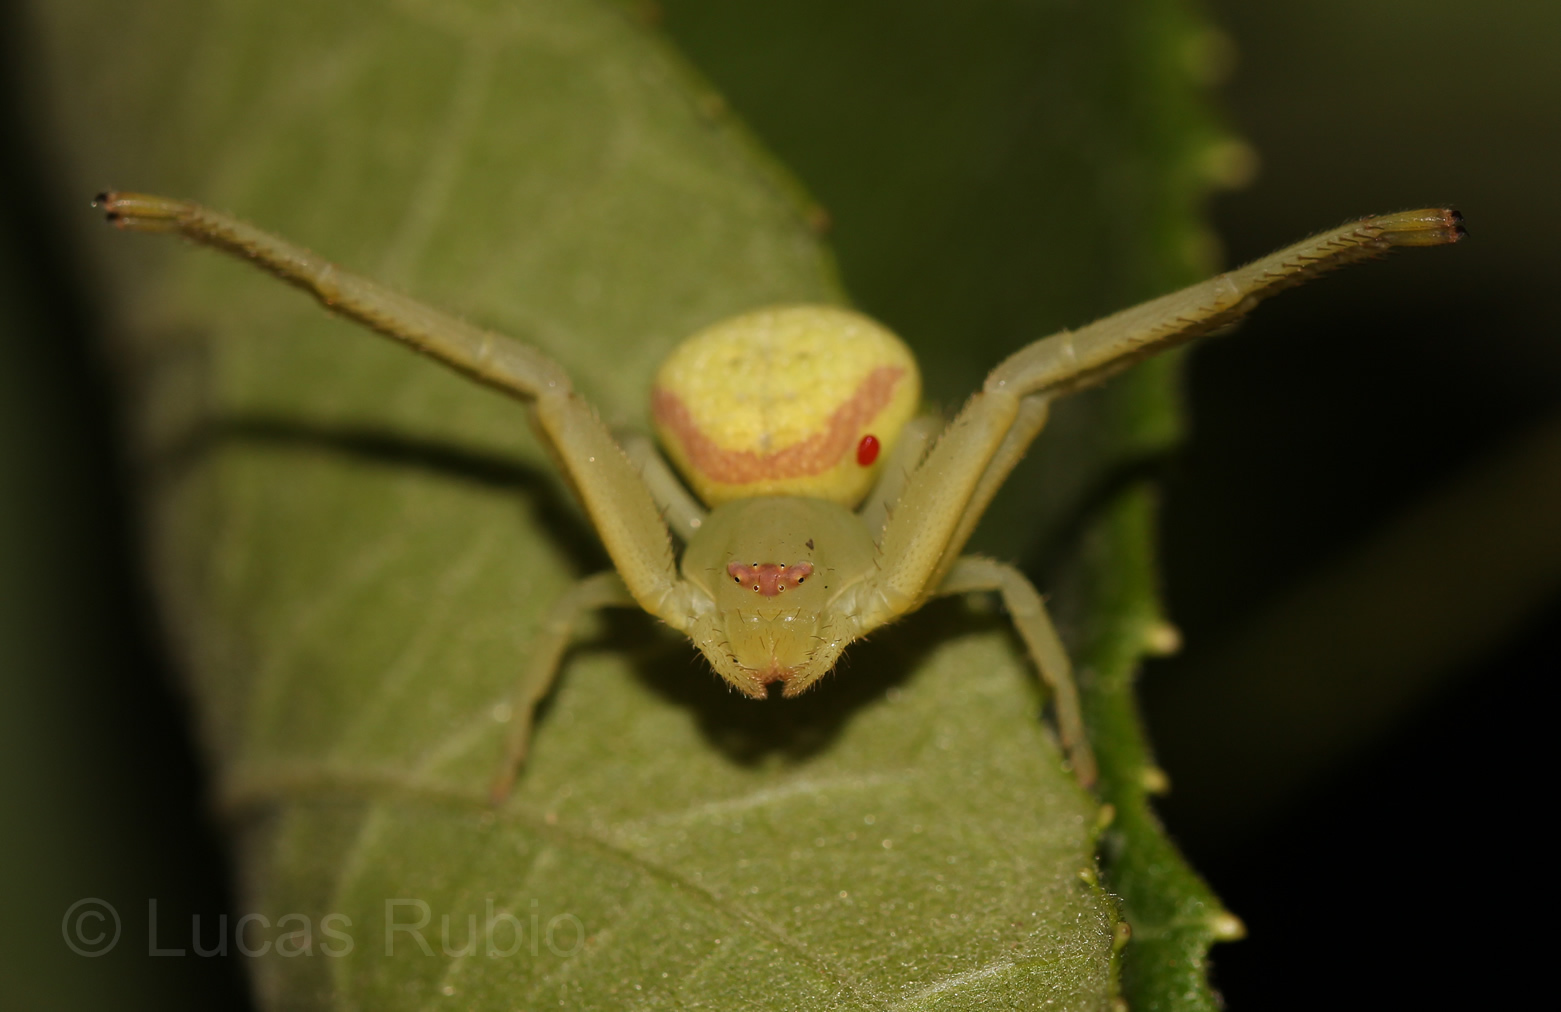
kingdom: Animalia
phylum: Arthropoda
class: Arachnida
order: Araneae
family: Thomisidae
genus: Misumenops
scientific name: Misumenops callinurus
